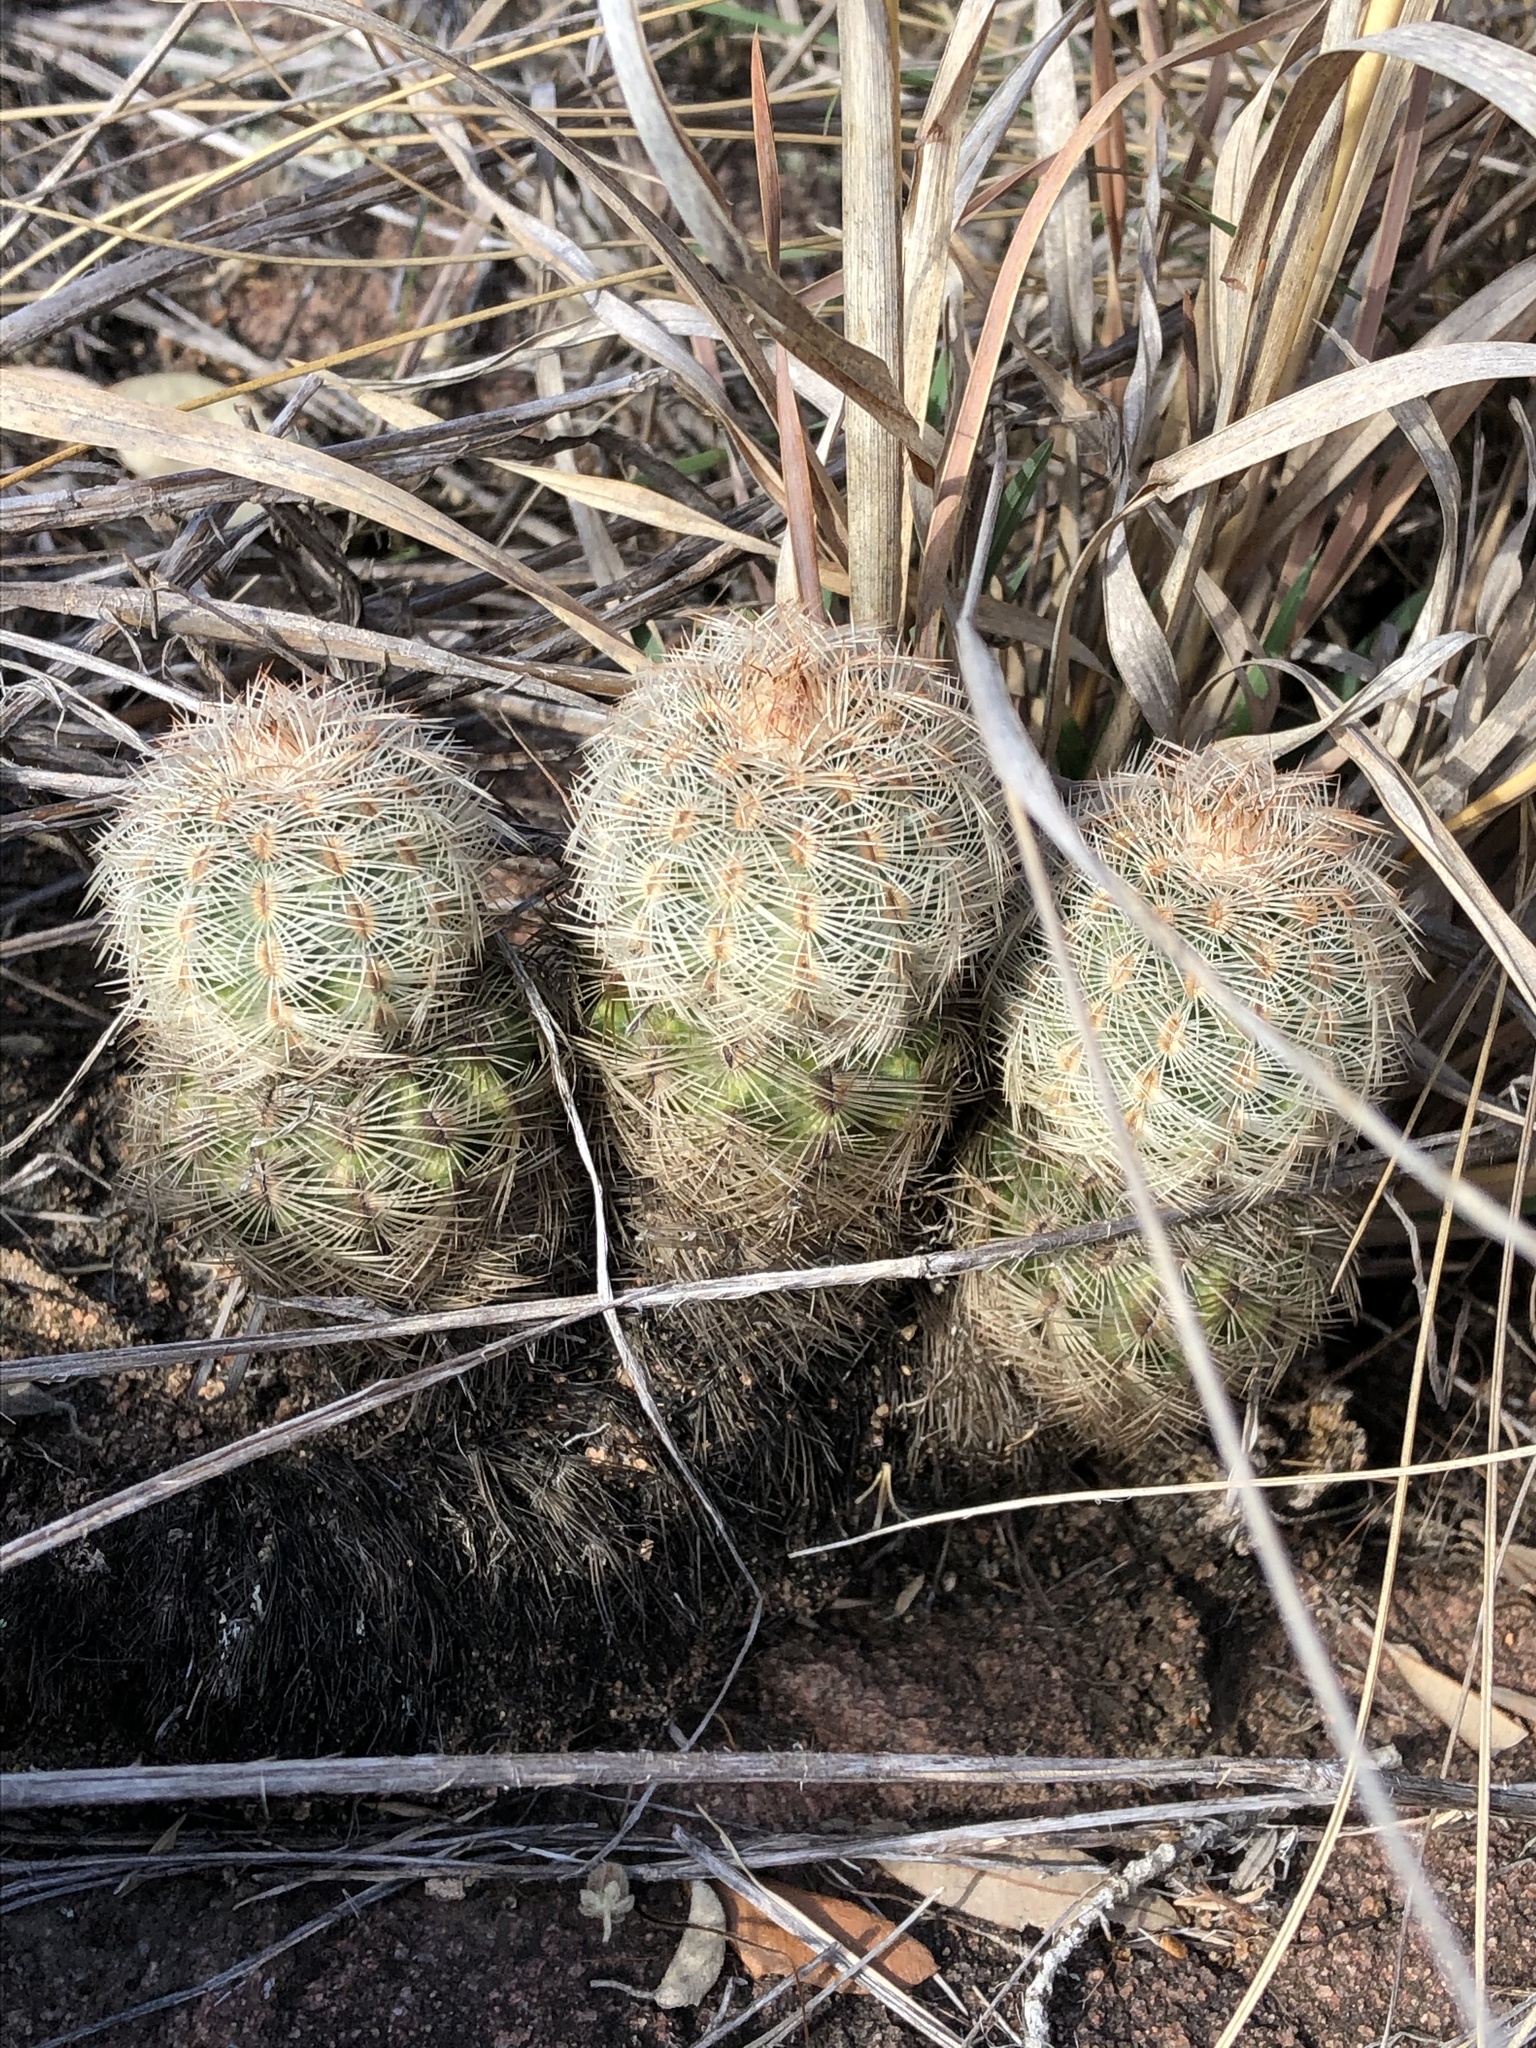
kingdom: Plantae
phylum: Tracheophyta
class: Magnoliopsida
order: Caryophyllales
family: Cactaceae
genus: Echinocereus
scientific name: Echinocereus reichenbachii
